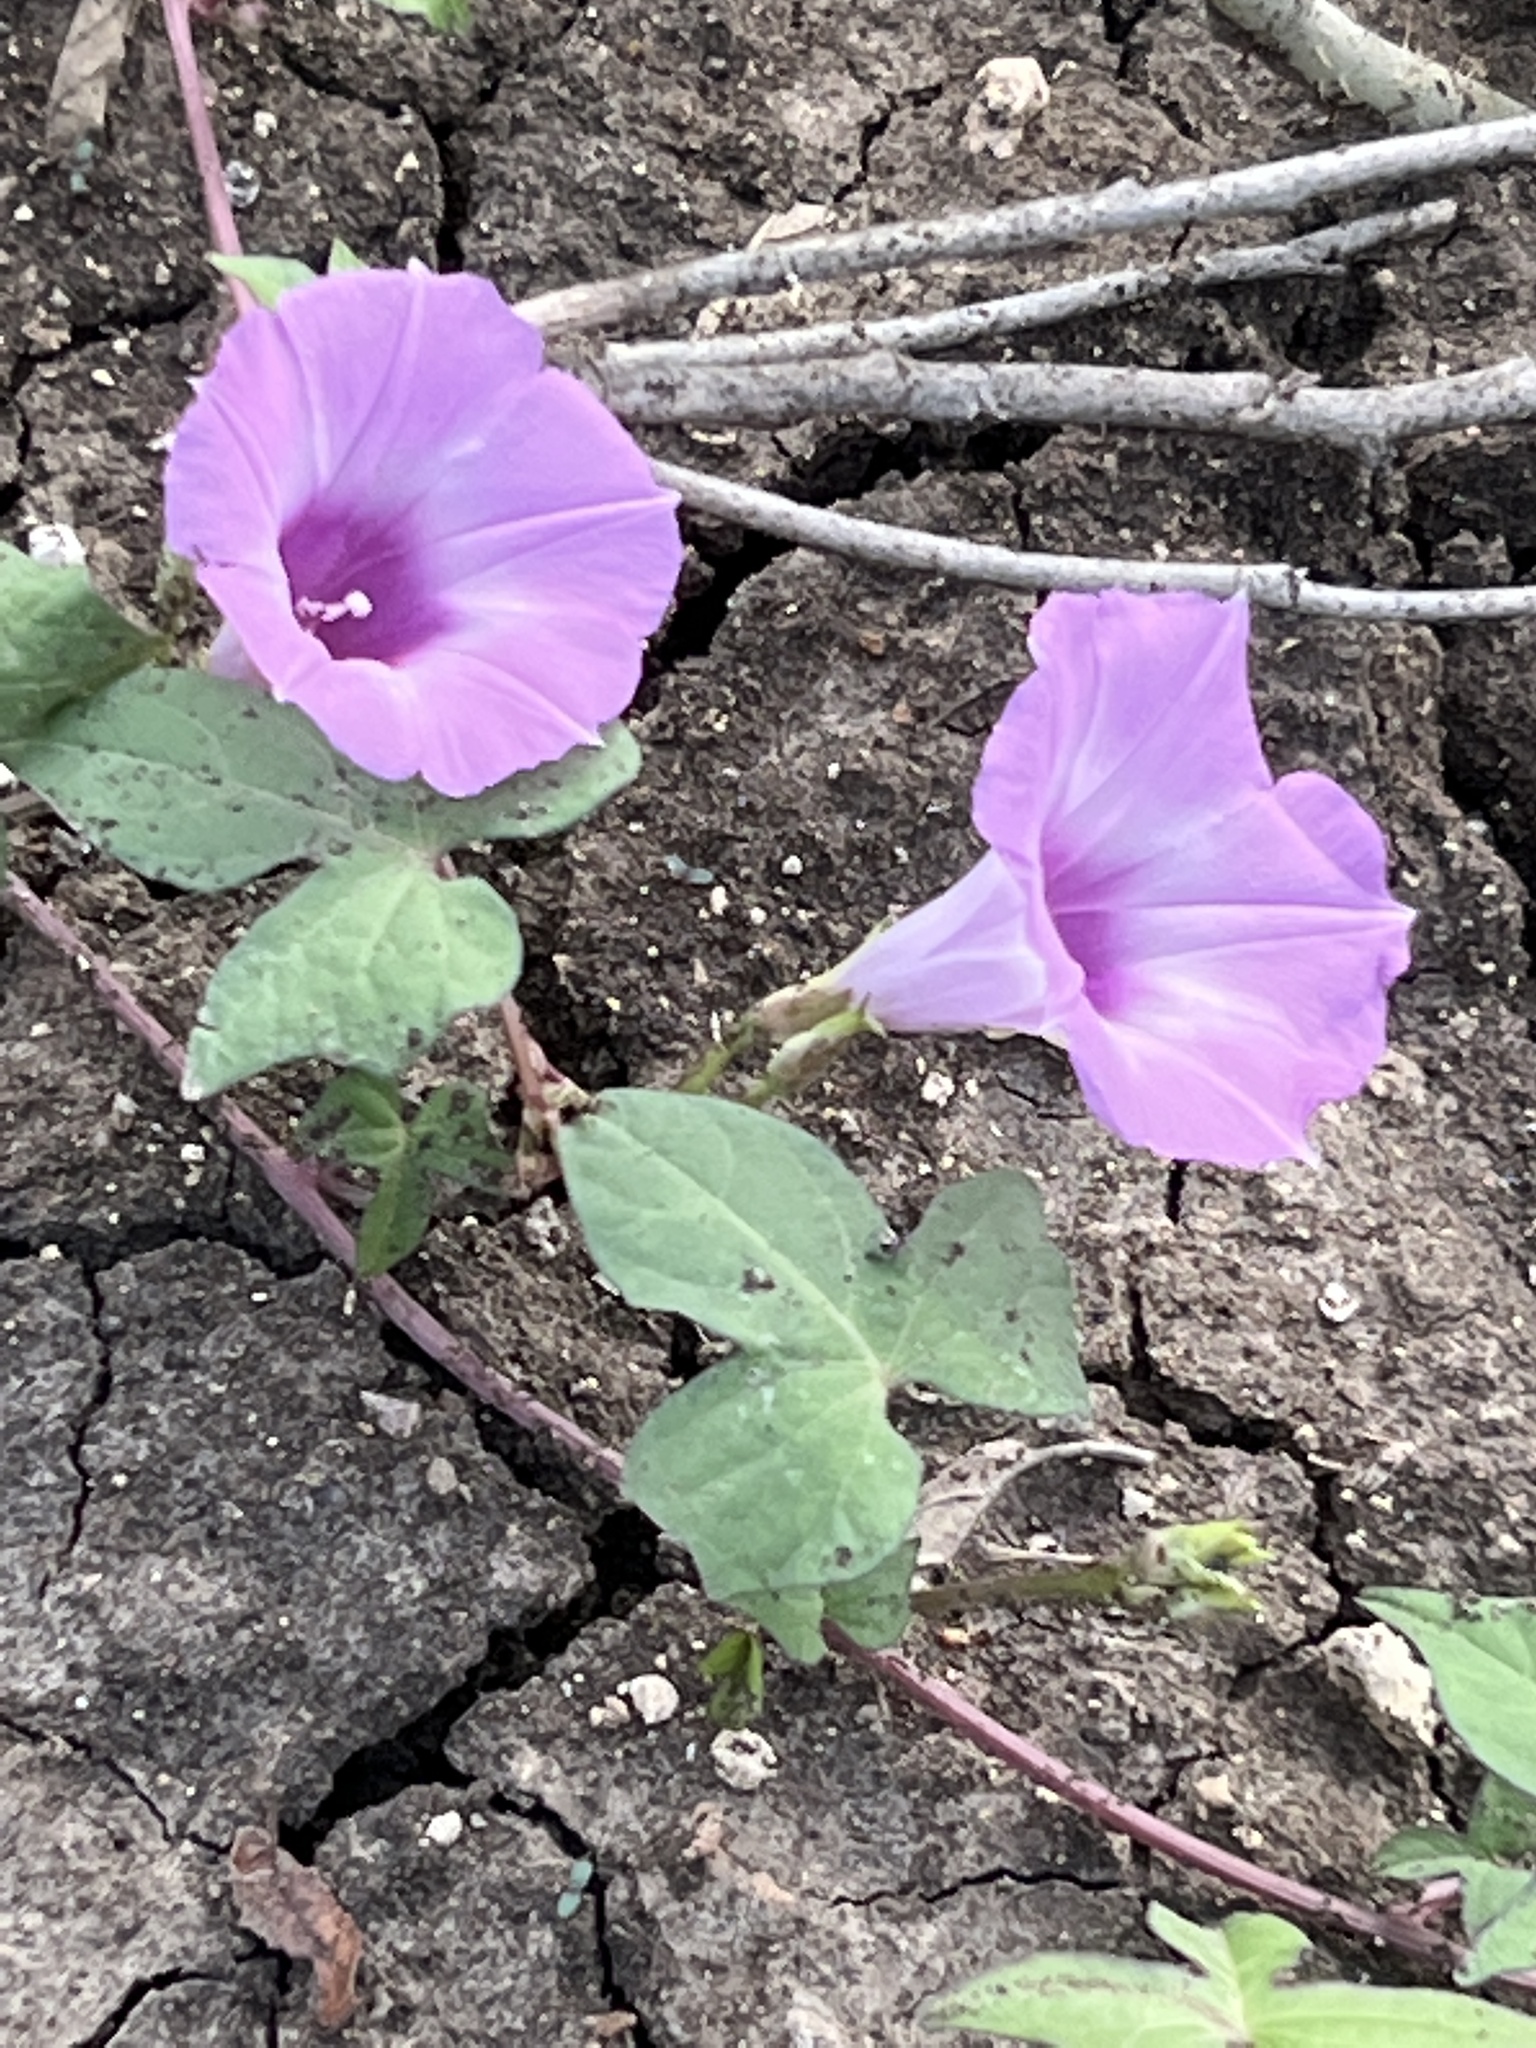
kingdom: Plantae
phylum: Tracheophyta
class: Magnoliopsida
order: Solanales
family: Convolvulaceae
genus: Ipomoea
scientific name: Ipomoea cordatotriloba
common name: Cotton morning glory
